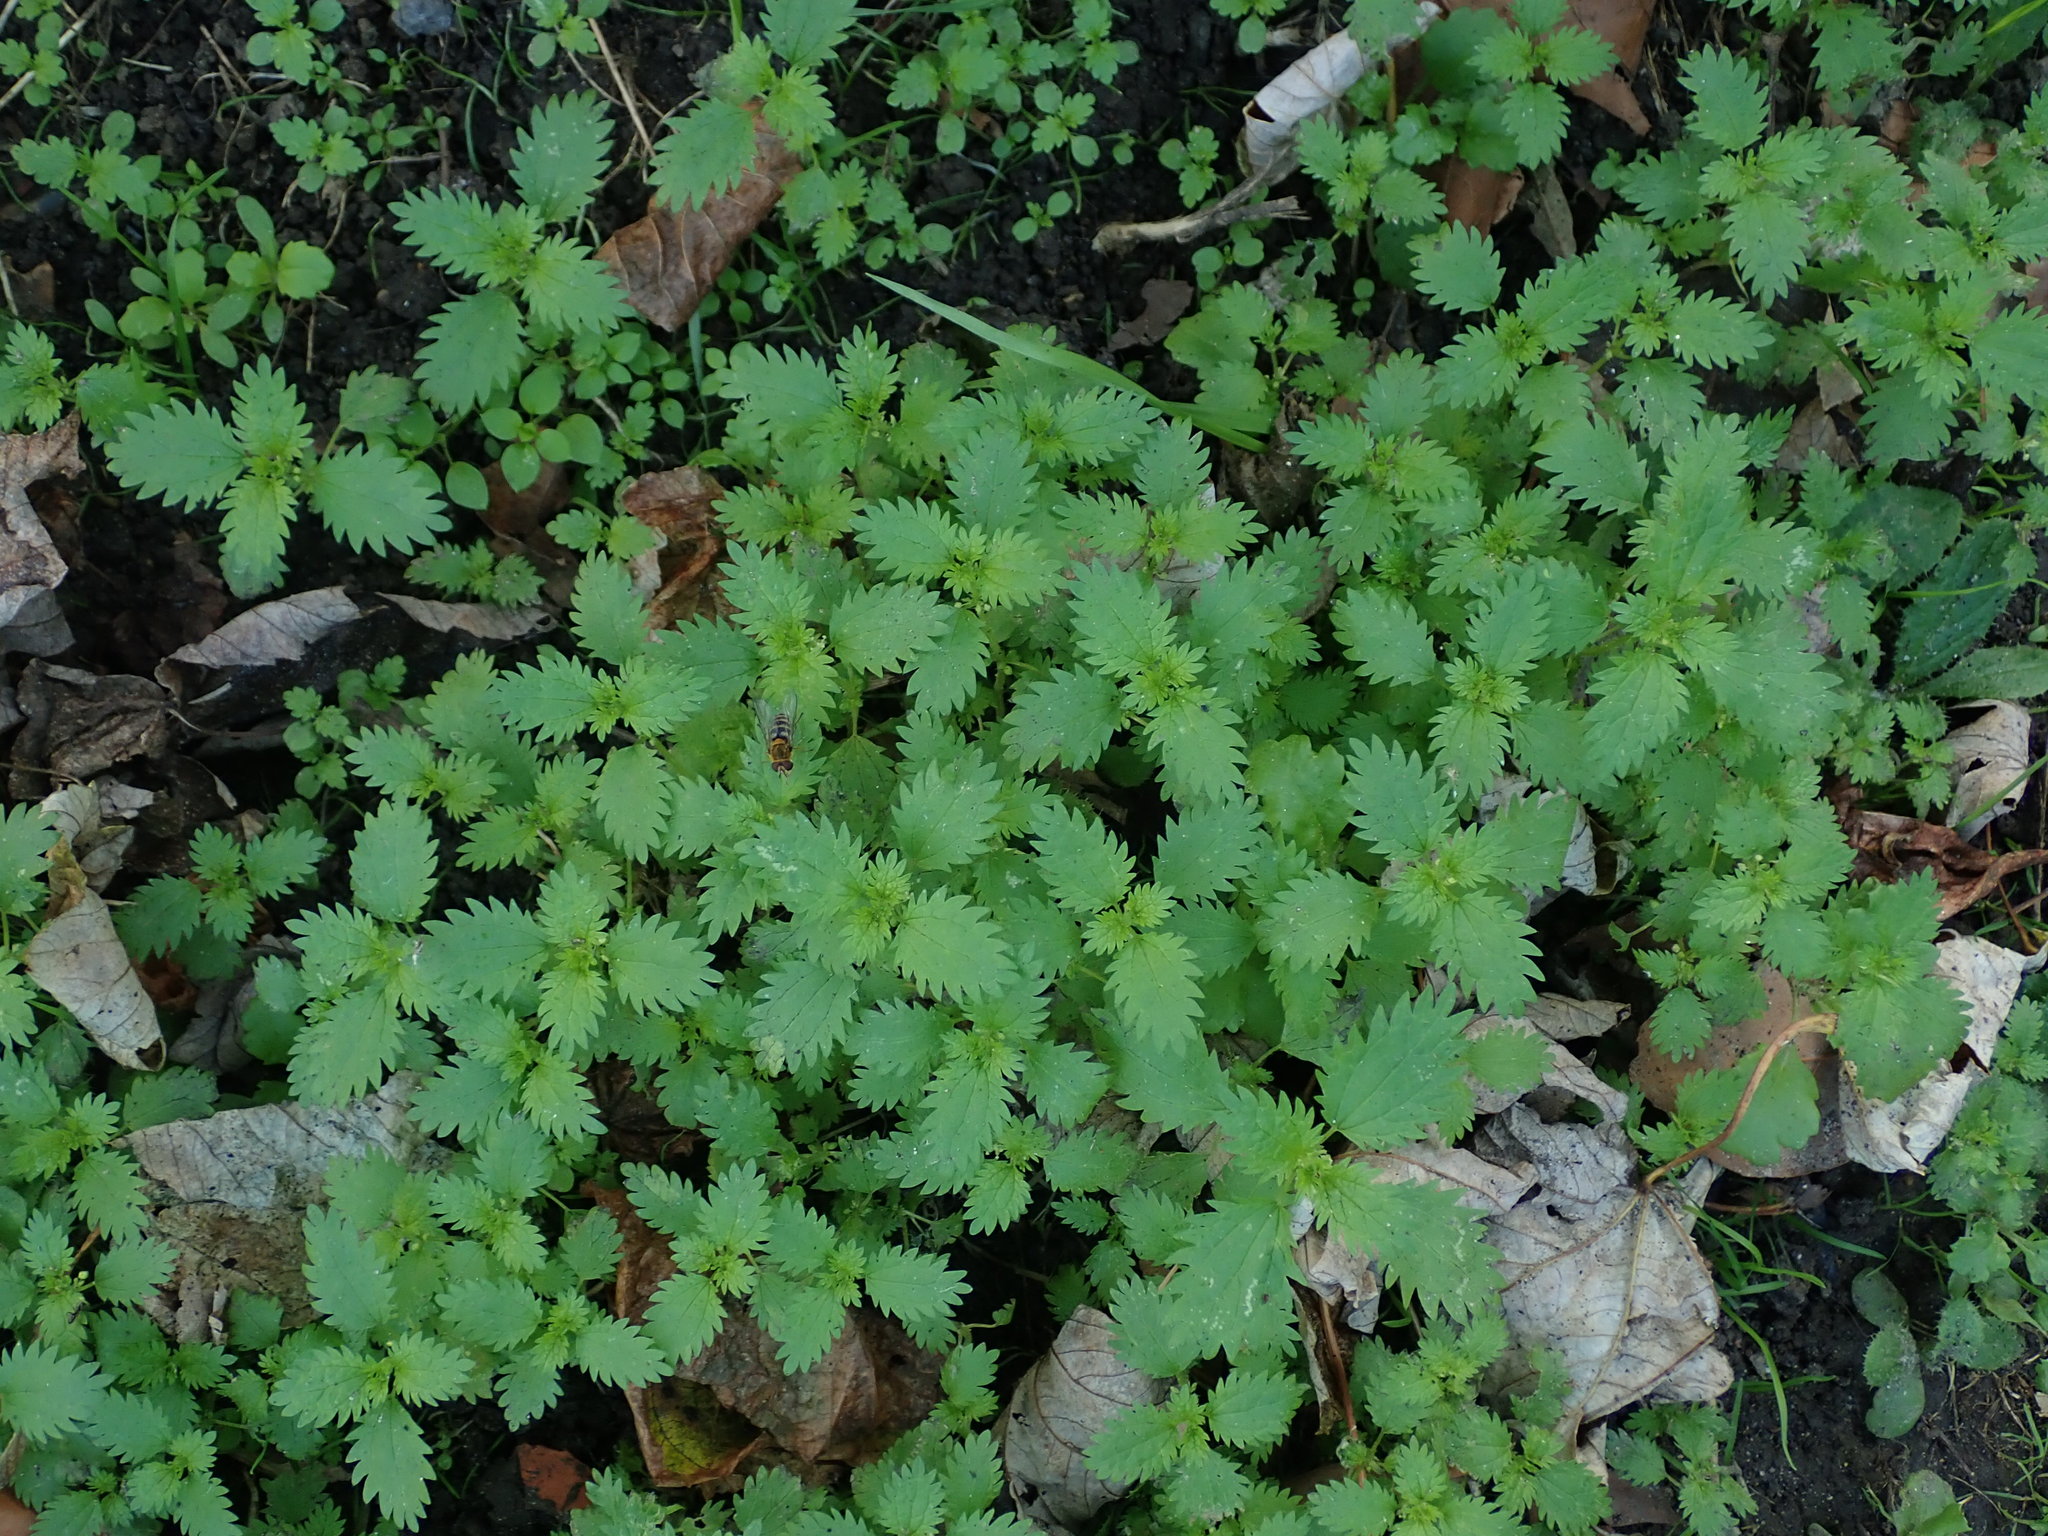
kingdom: Plantae
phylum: Tracheophyta
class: Magnoliopsida
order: Rosales
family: Urticaceae
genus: Urtica
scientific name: Urtica urens
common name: Dwarf nettle
